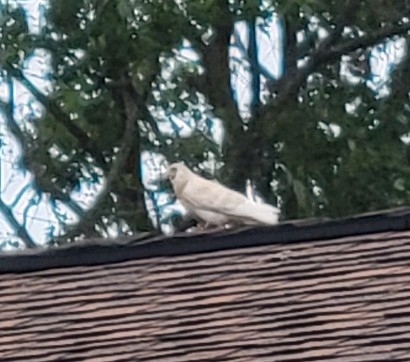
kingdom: Animalia
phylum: Chordata
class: Aves
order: Columbiformes
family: Columbidae
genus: Columba
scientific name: Columba livia
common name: Rock pigeon
